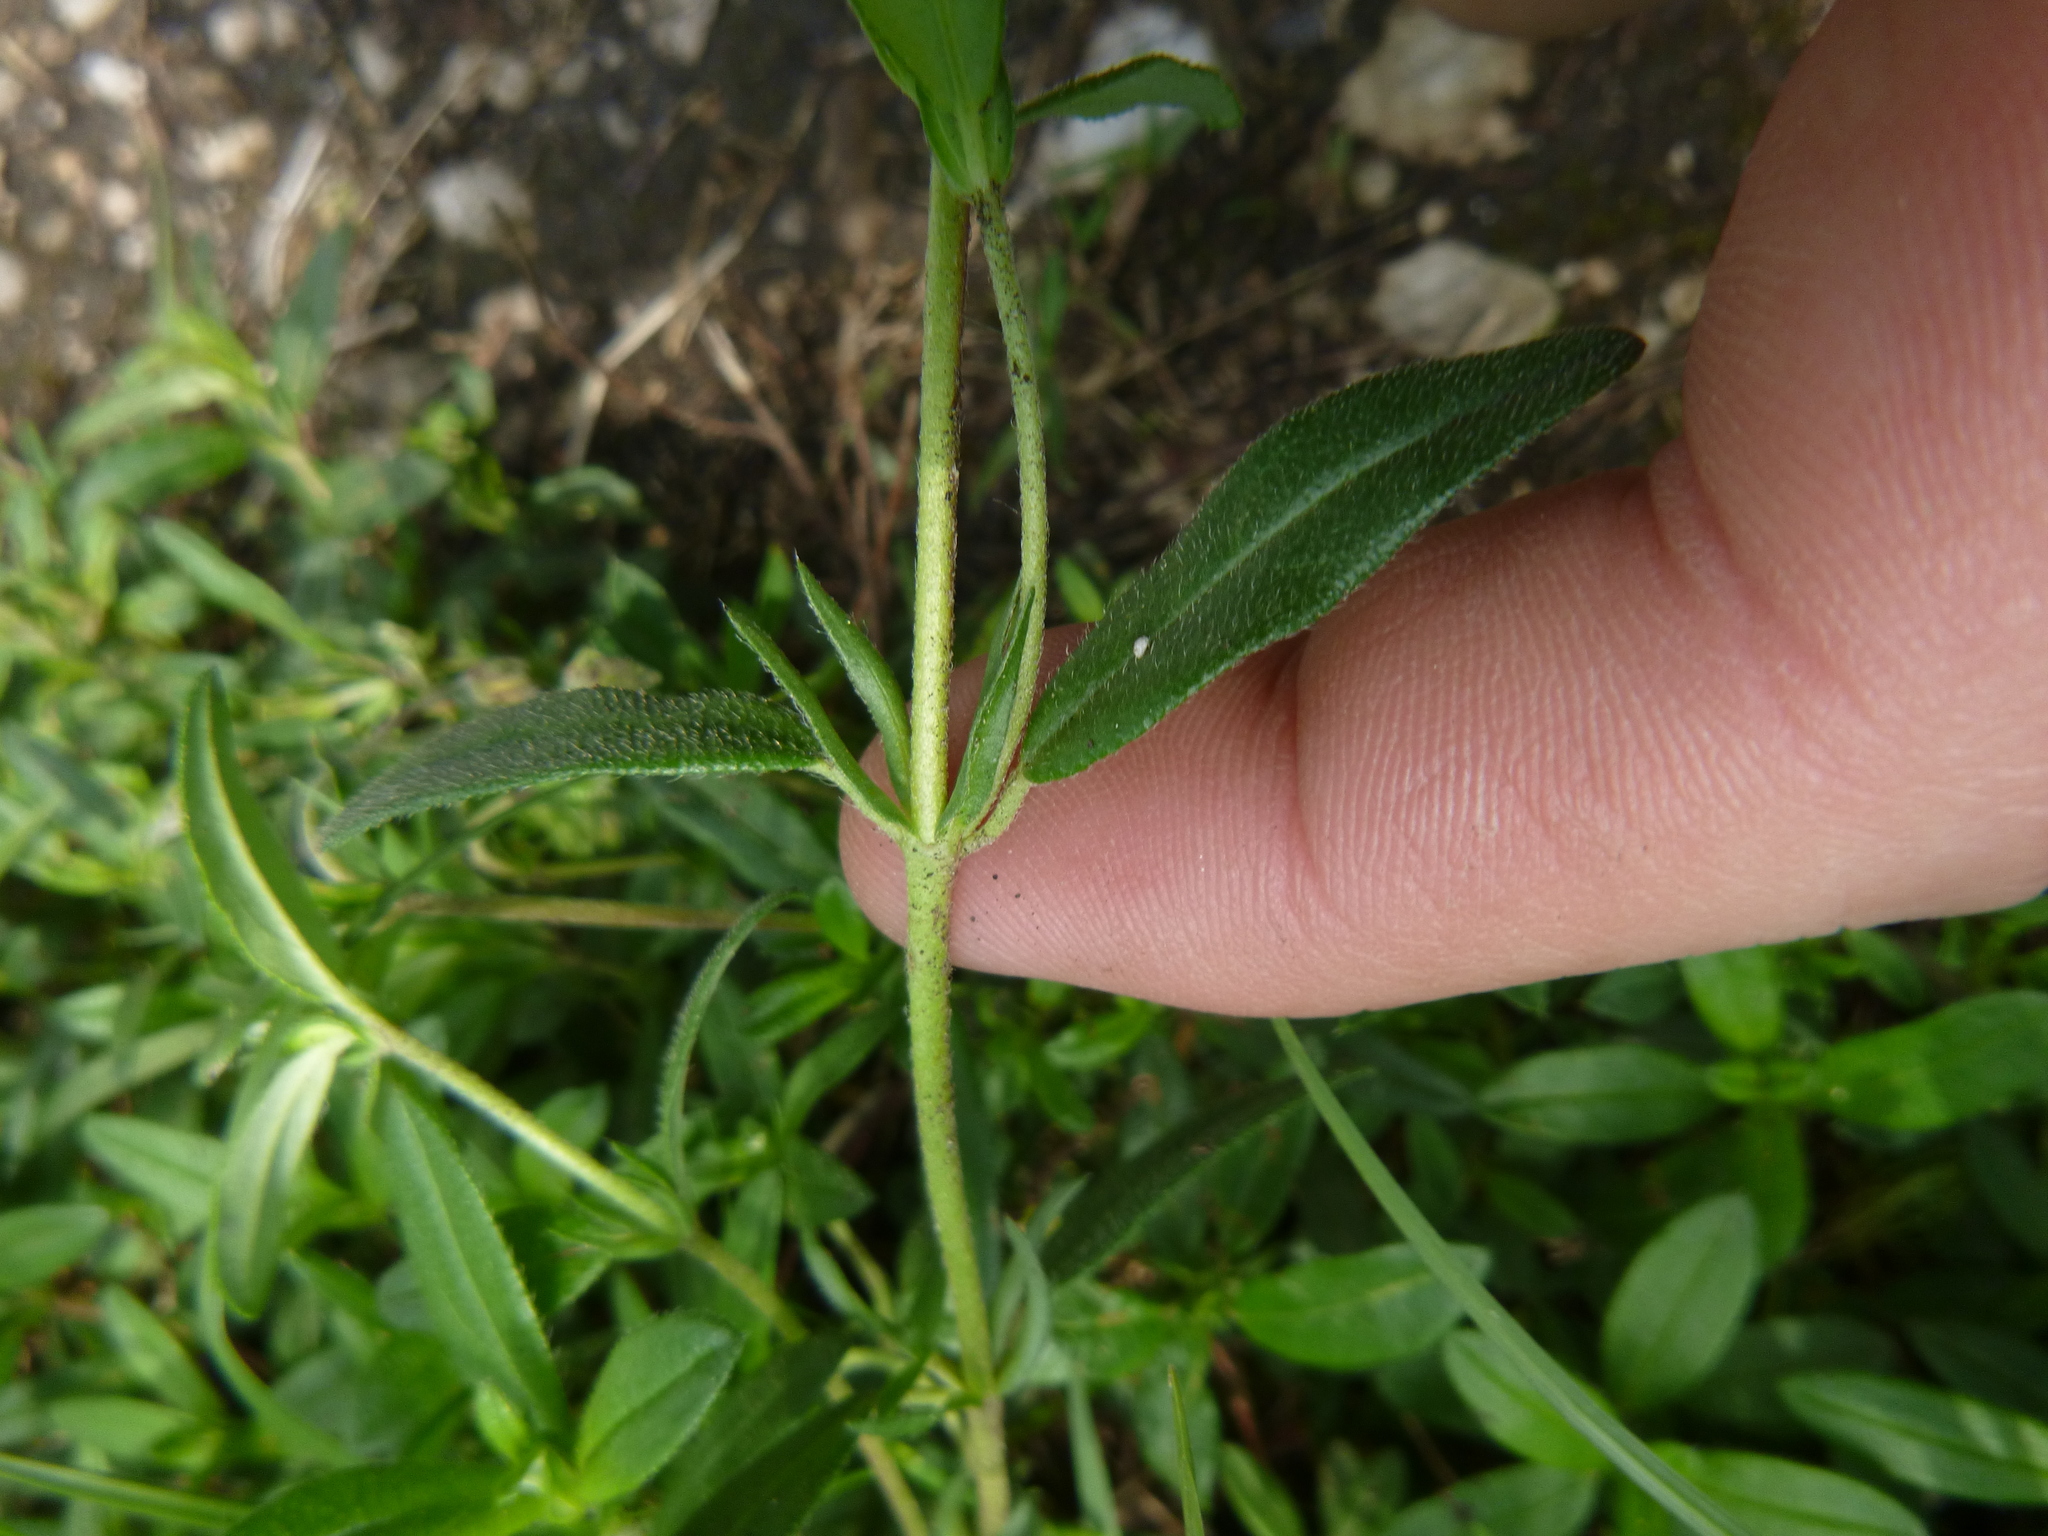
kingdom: Plantae
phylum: Tracheophyta
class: Magnoliopsida
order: Malvales
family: Cistaceae
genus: Helianthemum
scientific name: Helianthemum nummularium
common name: Common rock-rose
